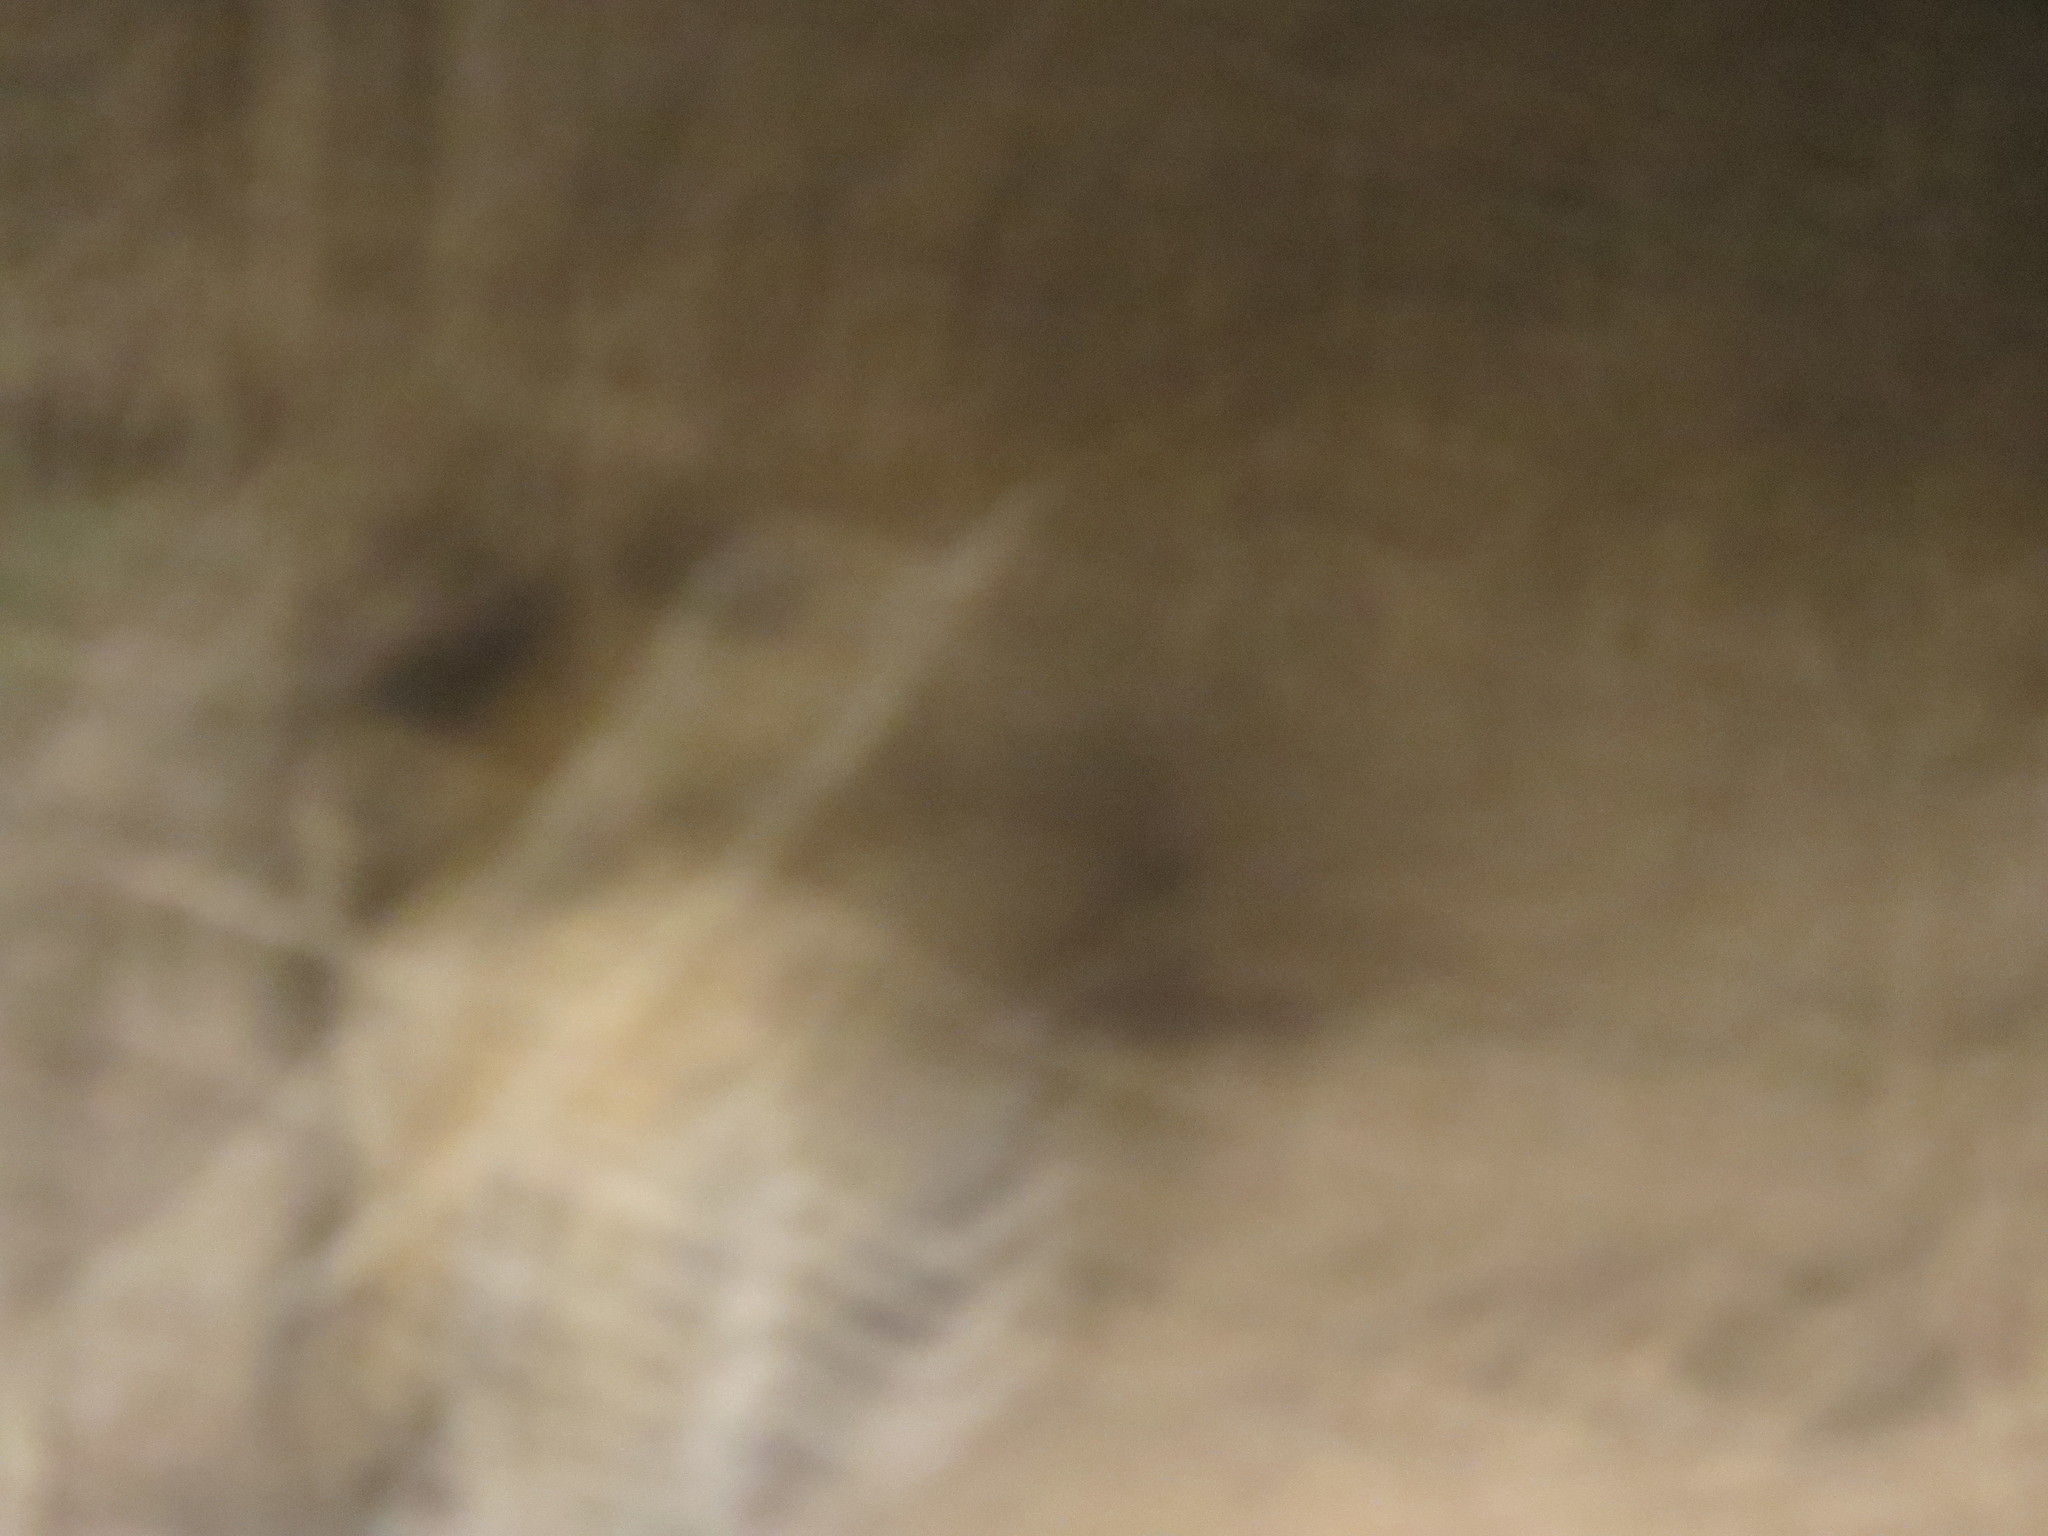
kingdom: Animalia
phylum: Chordata
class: Mammalia
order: Carnivora
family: Felidae
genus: Panthera
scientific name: Panthera pardus
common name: Leopard
